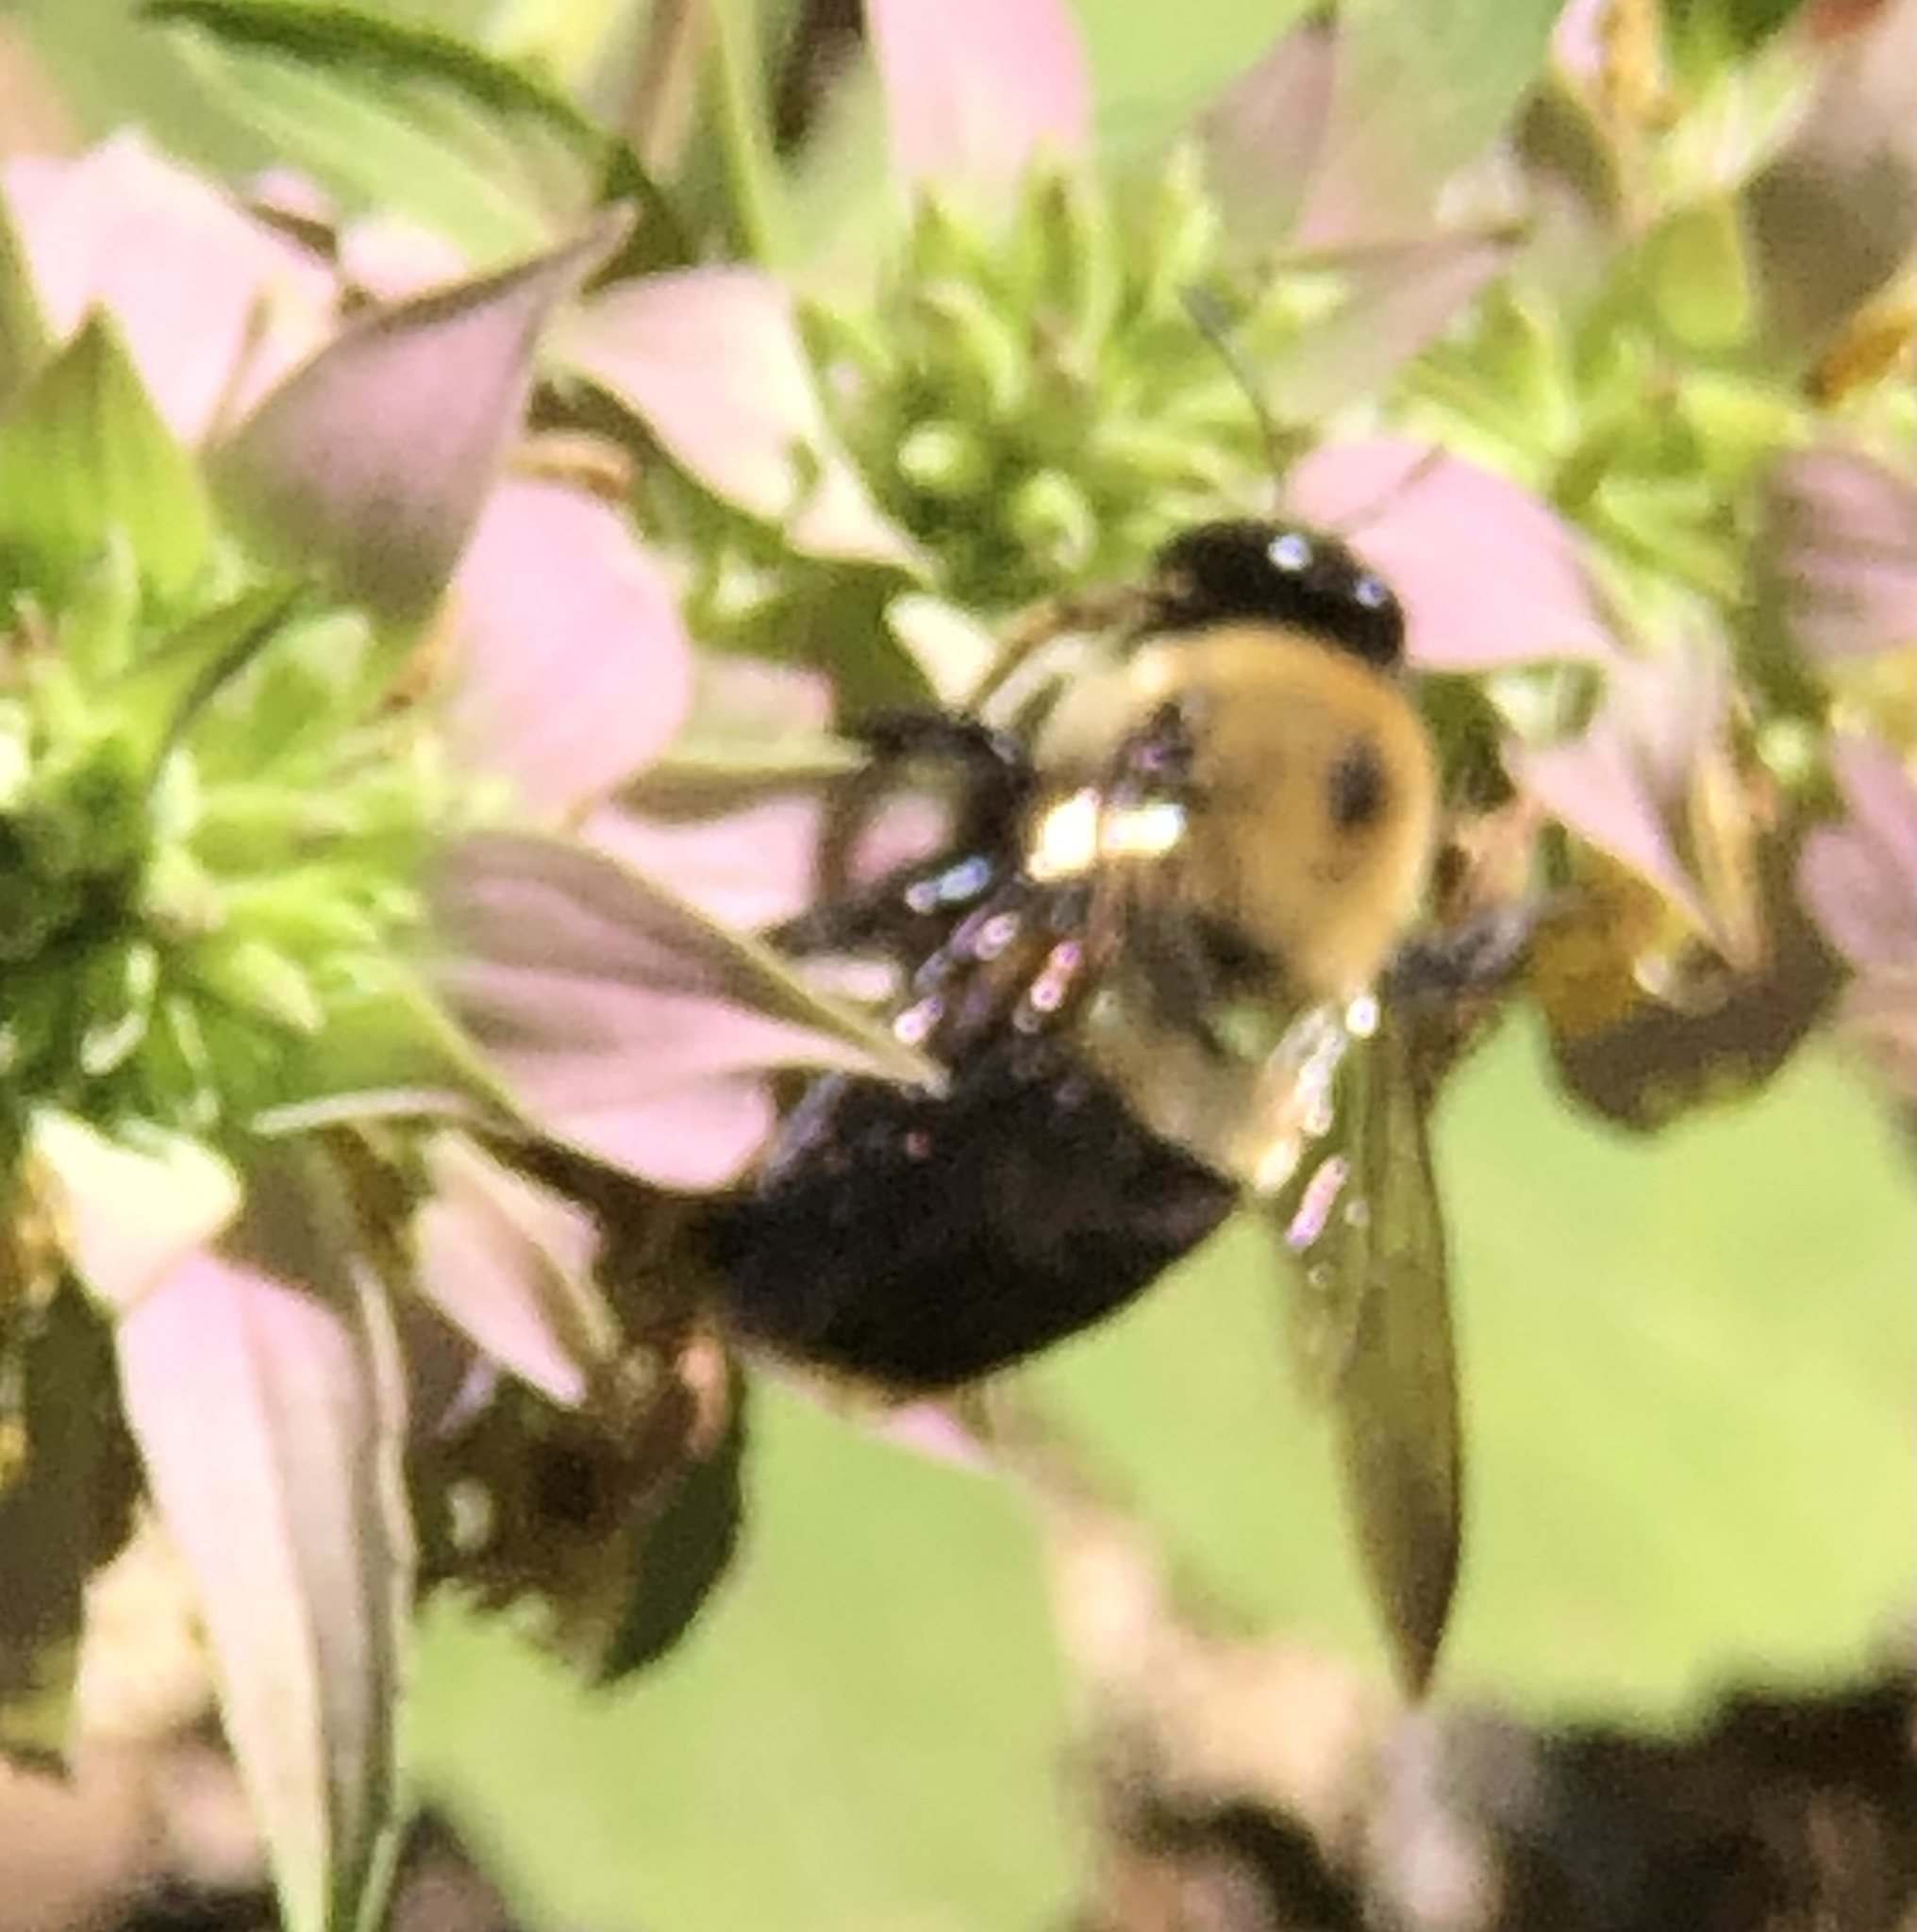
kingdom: Animalia
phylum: Arthropoda
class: Insecta
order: Hymenoptera
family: Apidae
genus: Xylocopa
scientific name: Xylocopa virginica
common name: Carpenter bee
